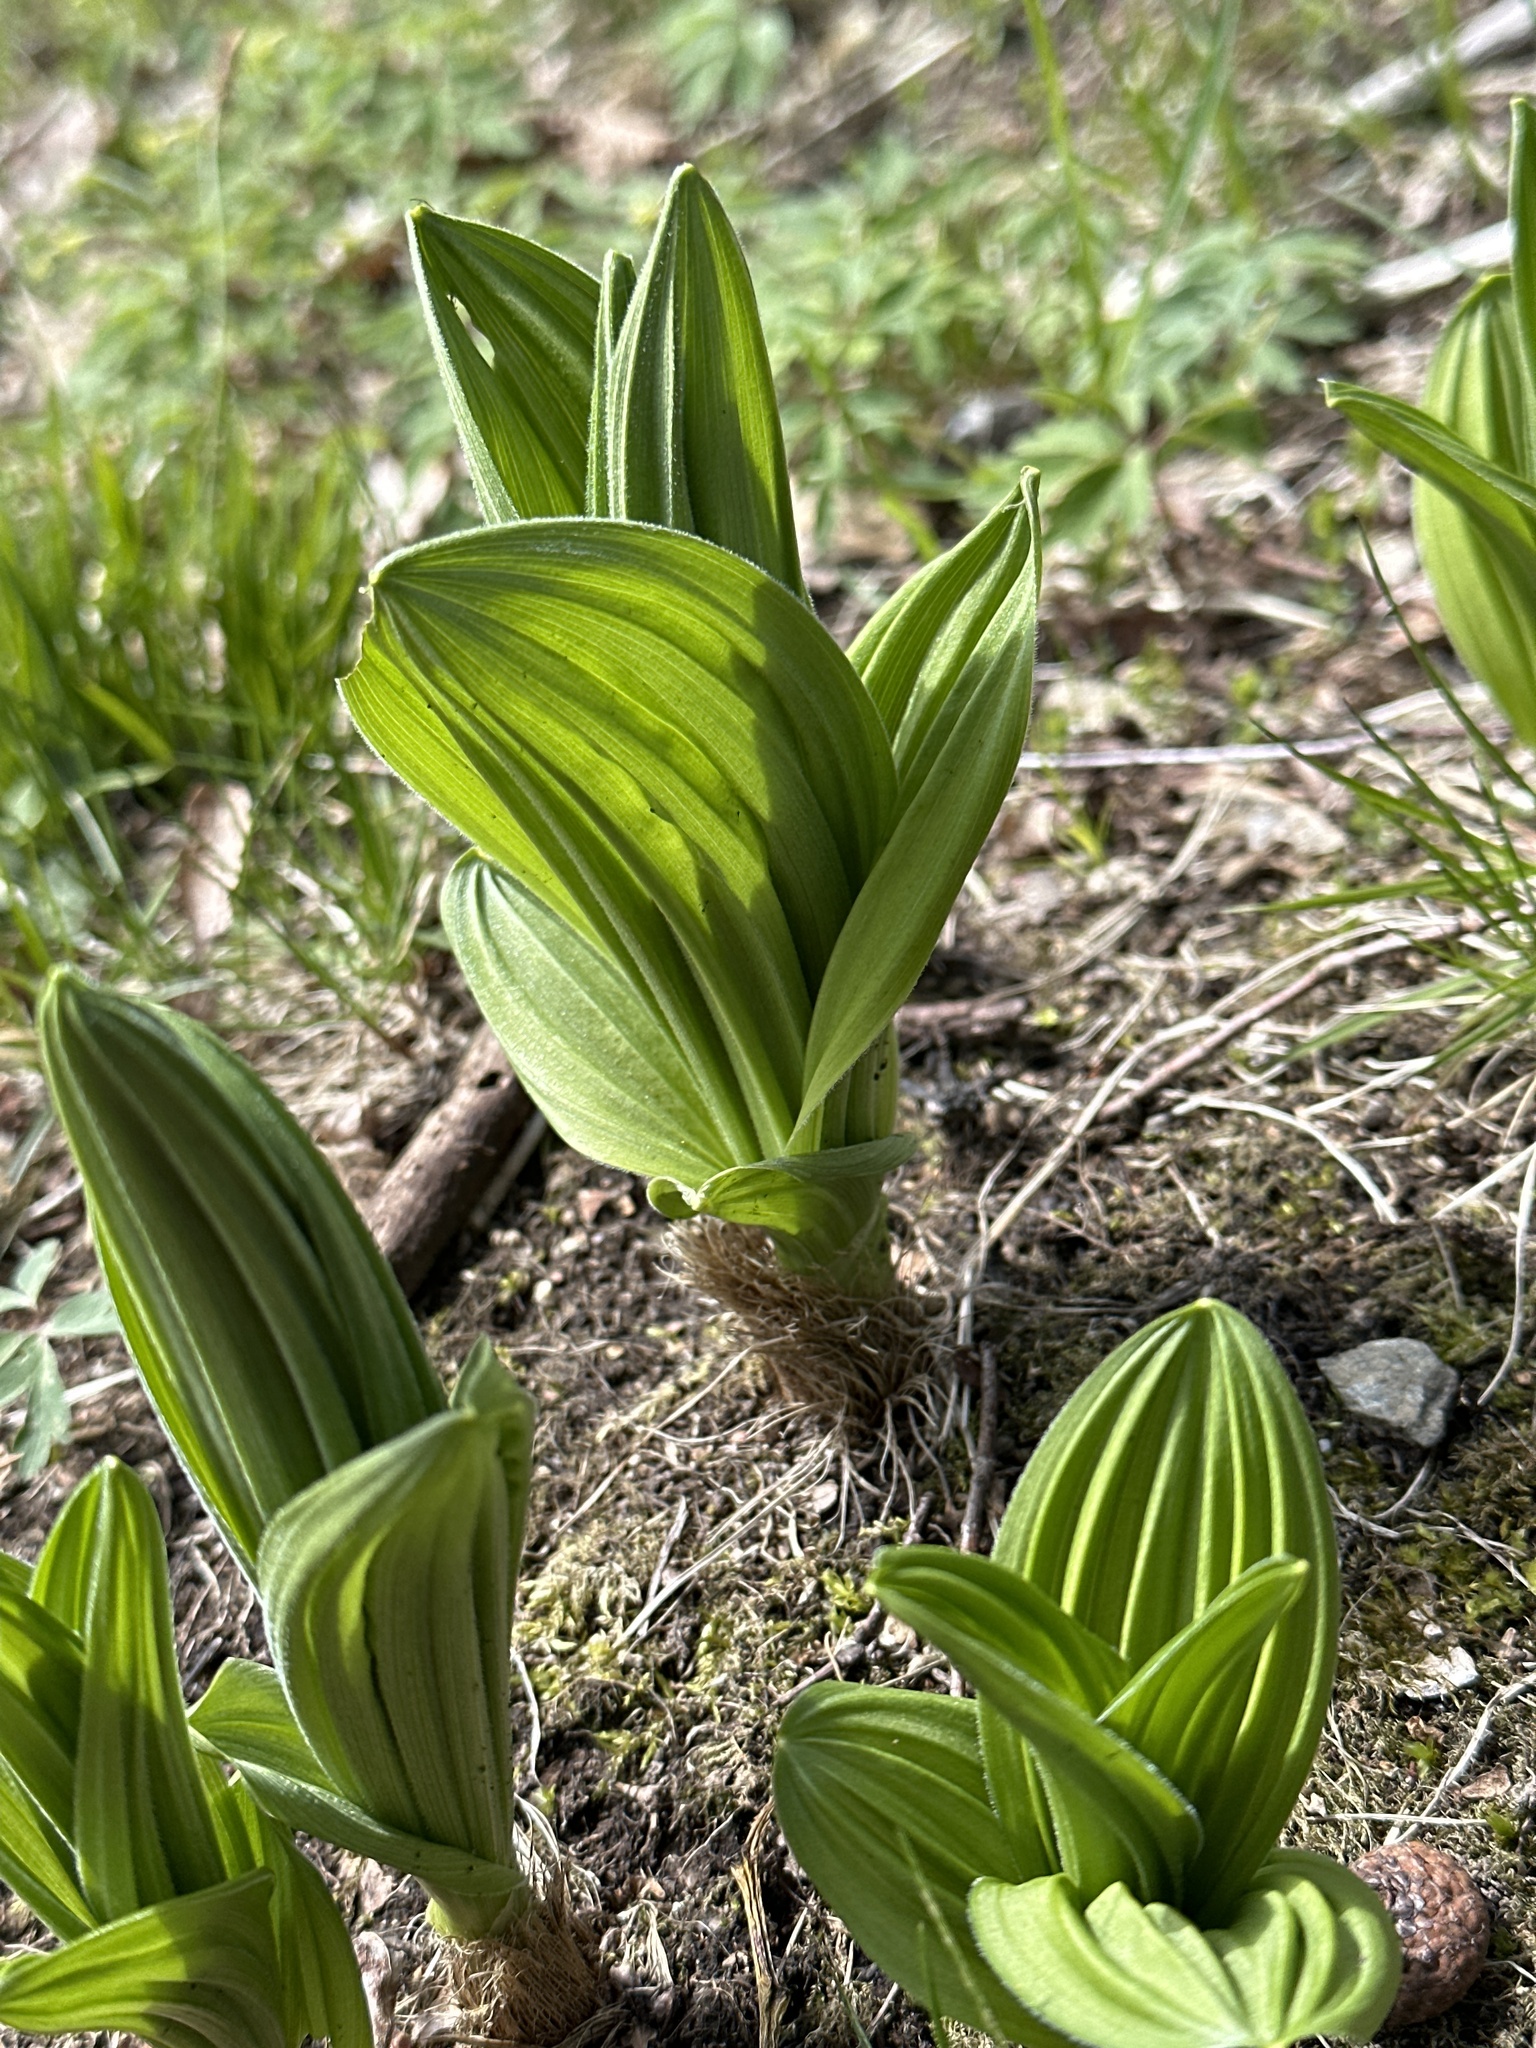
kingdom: Plantae
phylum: Tracheophyta
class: Liliopsida
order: Liliales
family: Melanthiaceae
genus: Veratrum
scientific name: Veratrum album
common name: White veratrum
